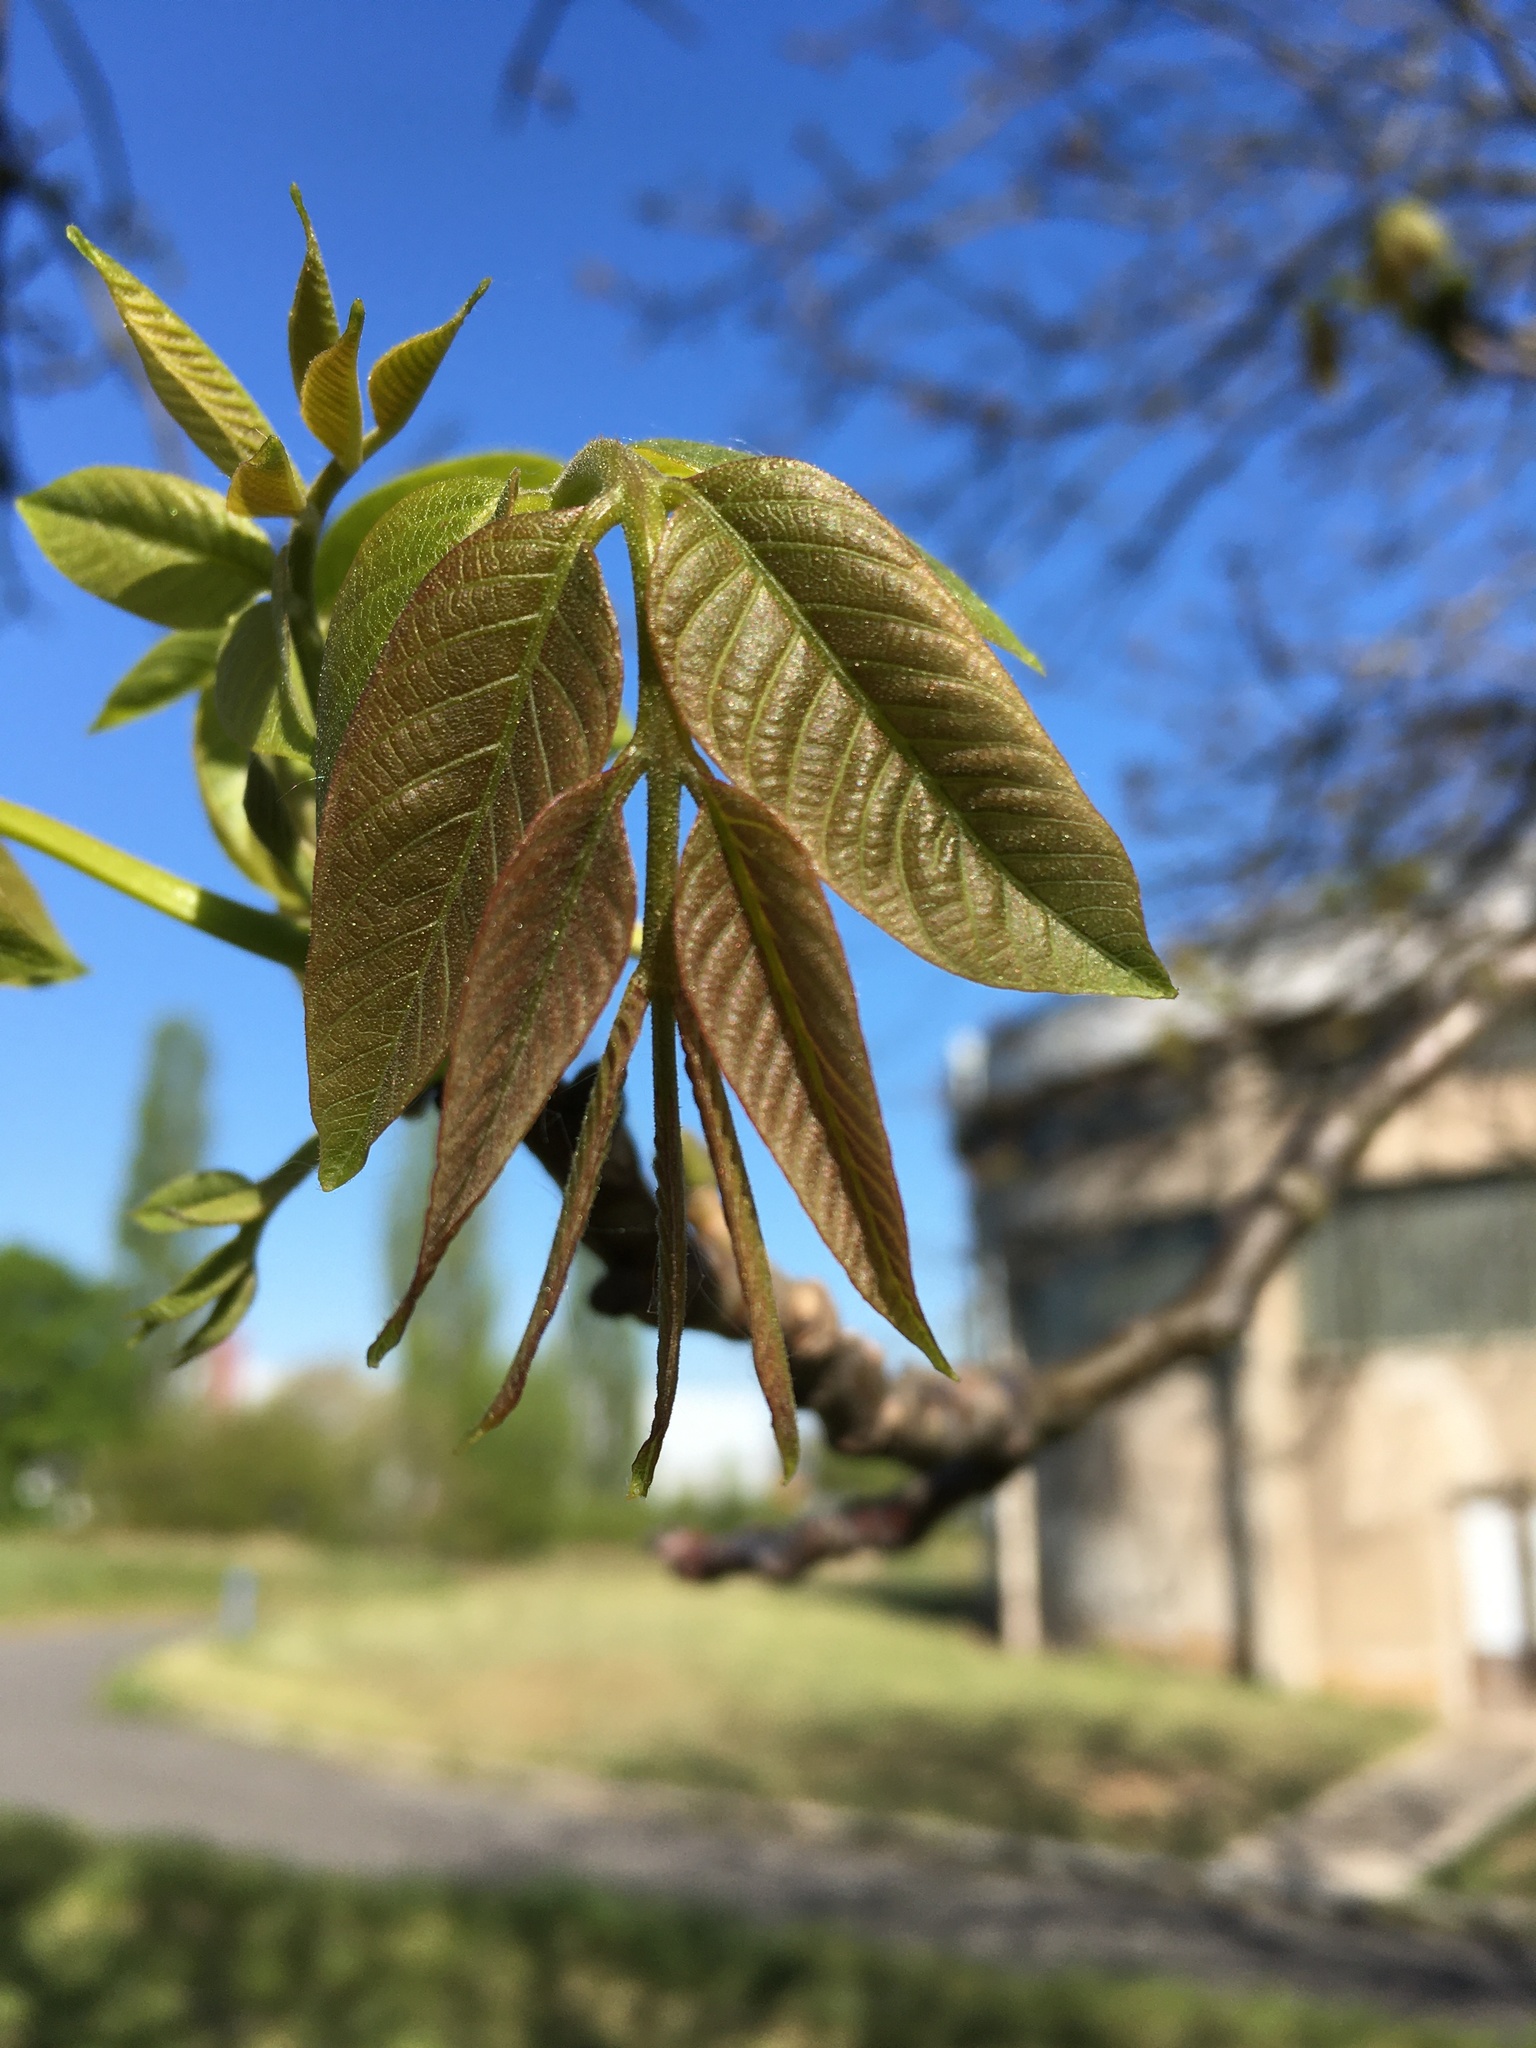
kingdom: Plantae
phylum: Tracheophyta
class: Magnoliopsida
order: Fagales
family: Juglandaceae
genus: Juglans
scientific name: Juglans regia
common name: Walnut
